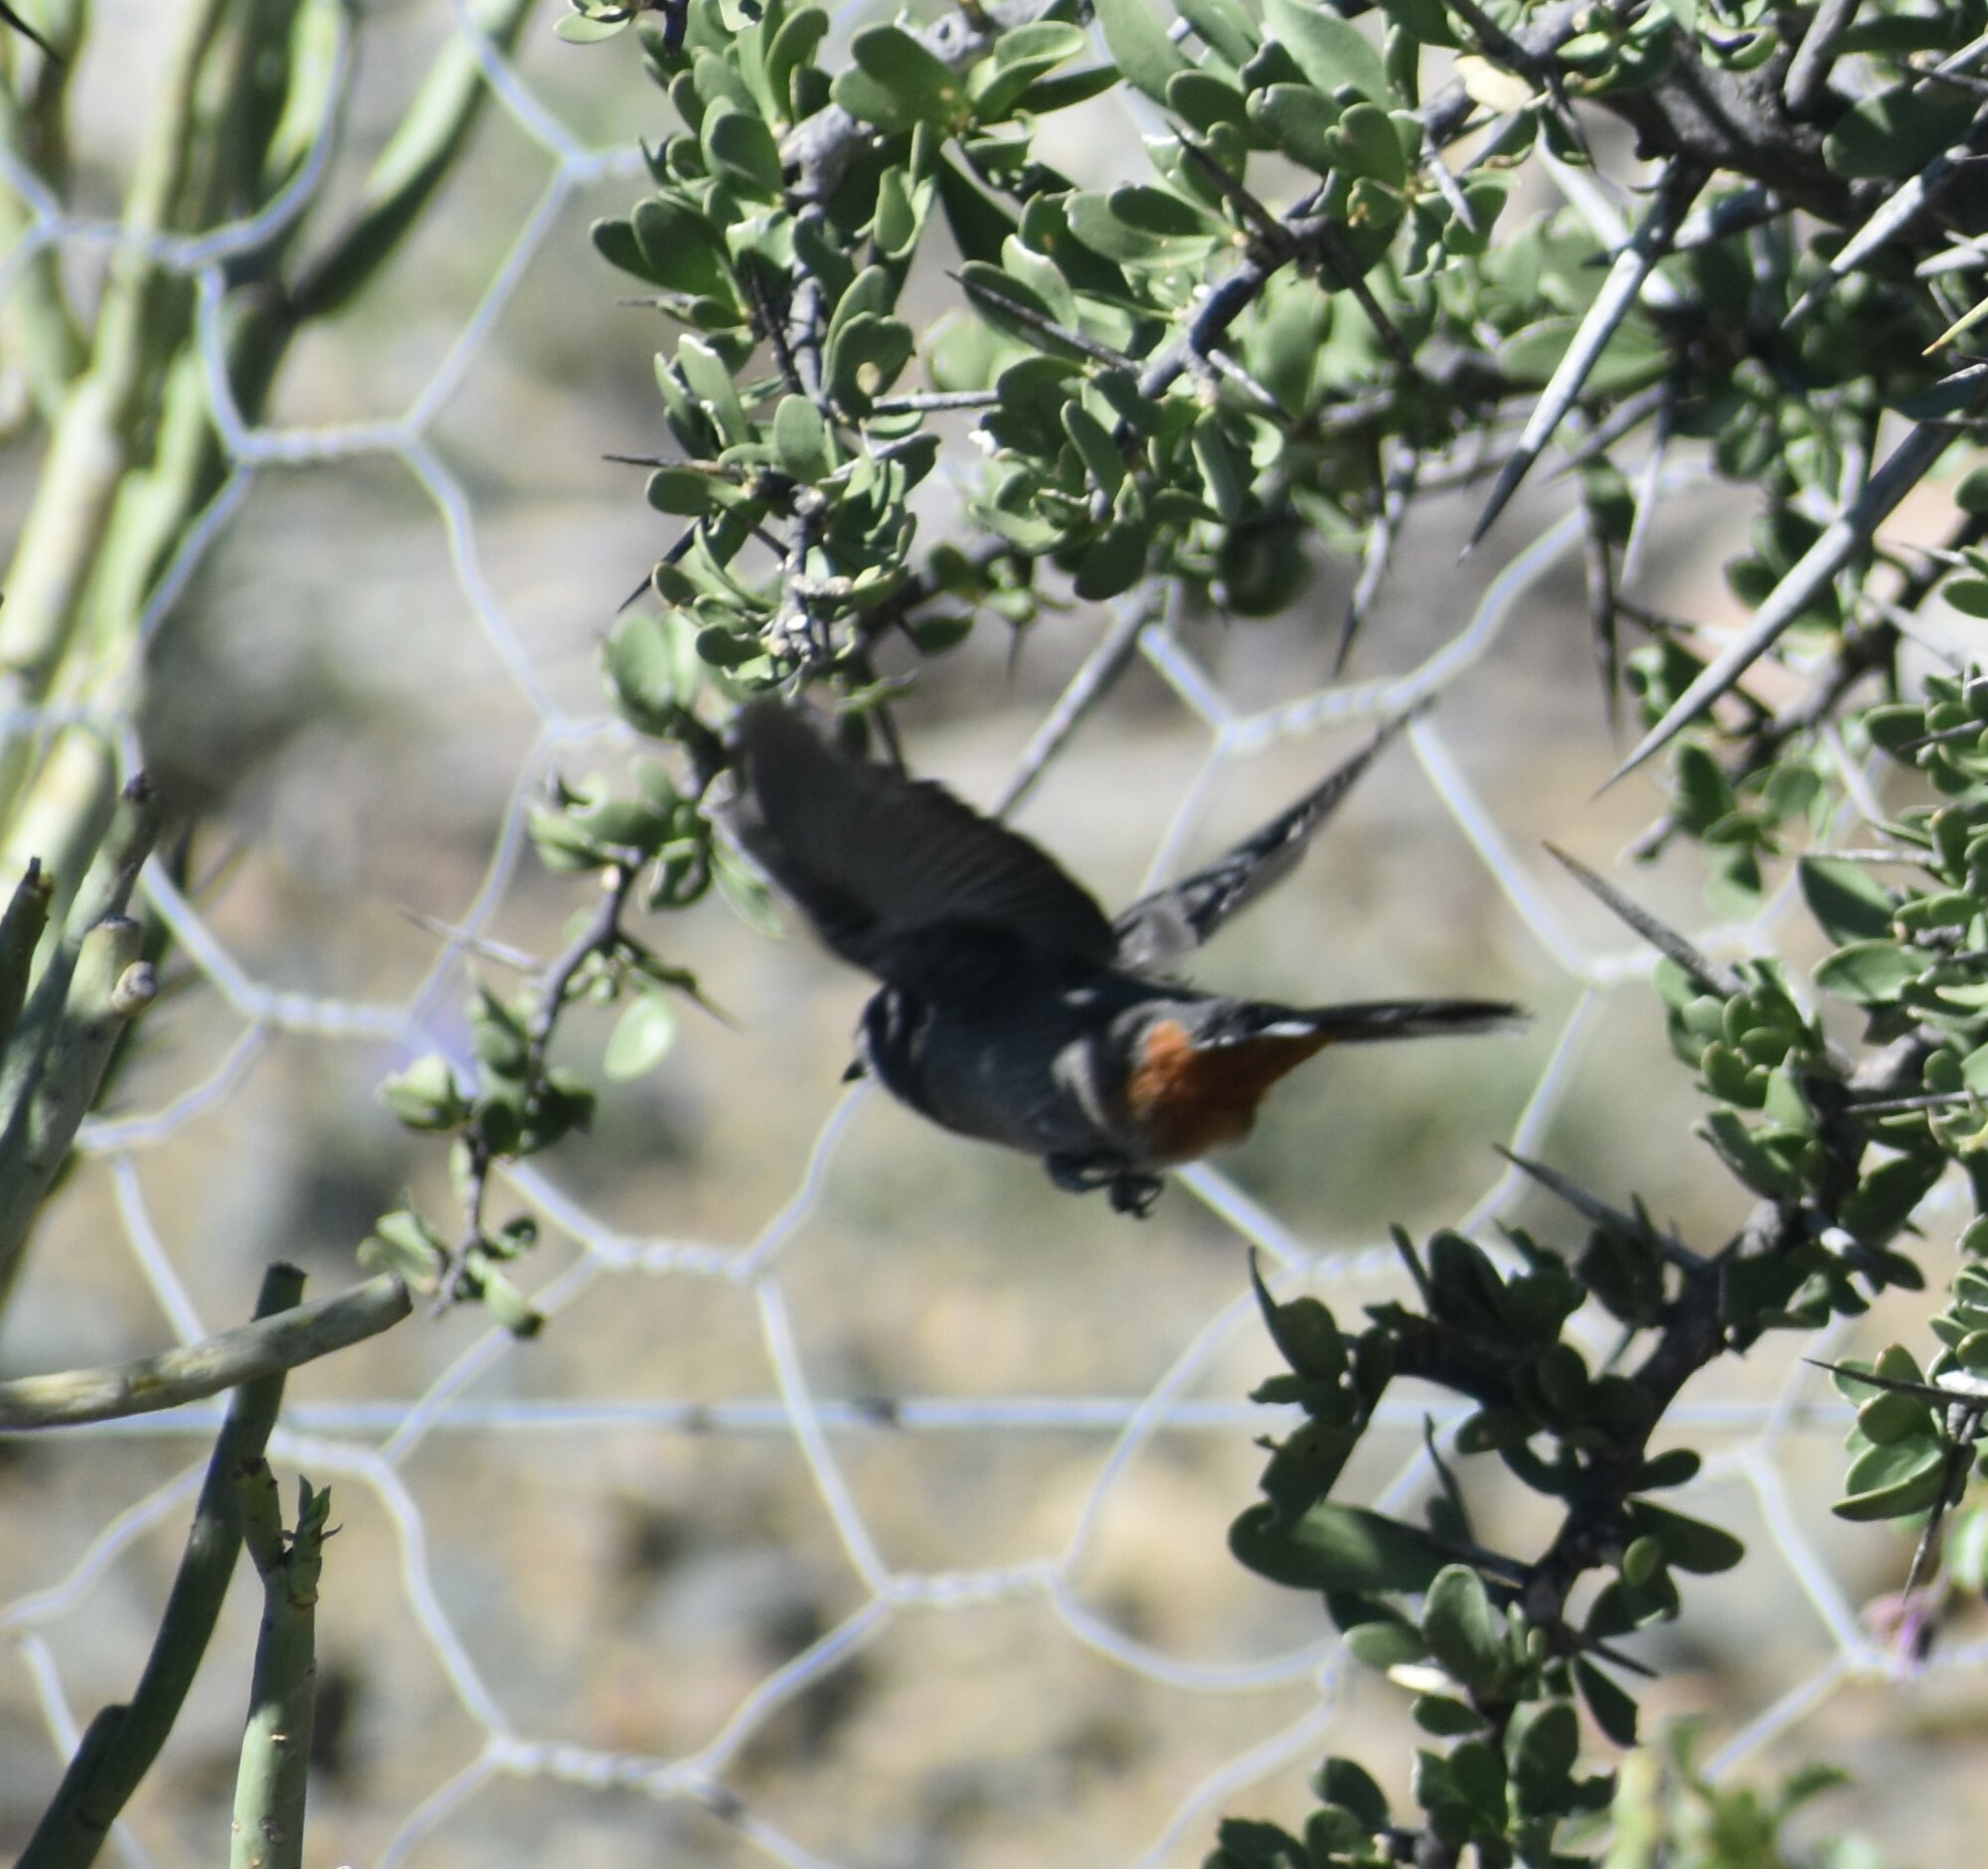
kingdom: Animalia
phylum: Chordata
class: Aves
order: Passeriformes
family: Sylviidae
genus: Curruca
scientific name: Curruca subcoerulea
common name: Chestnut-vented warbler
